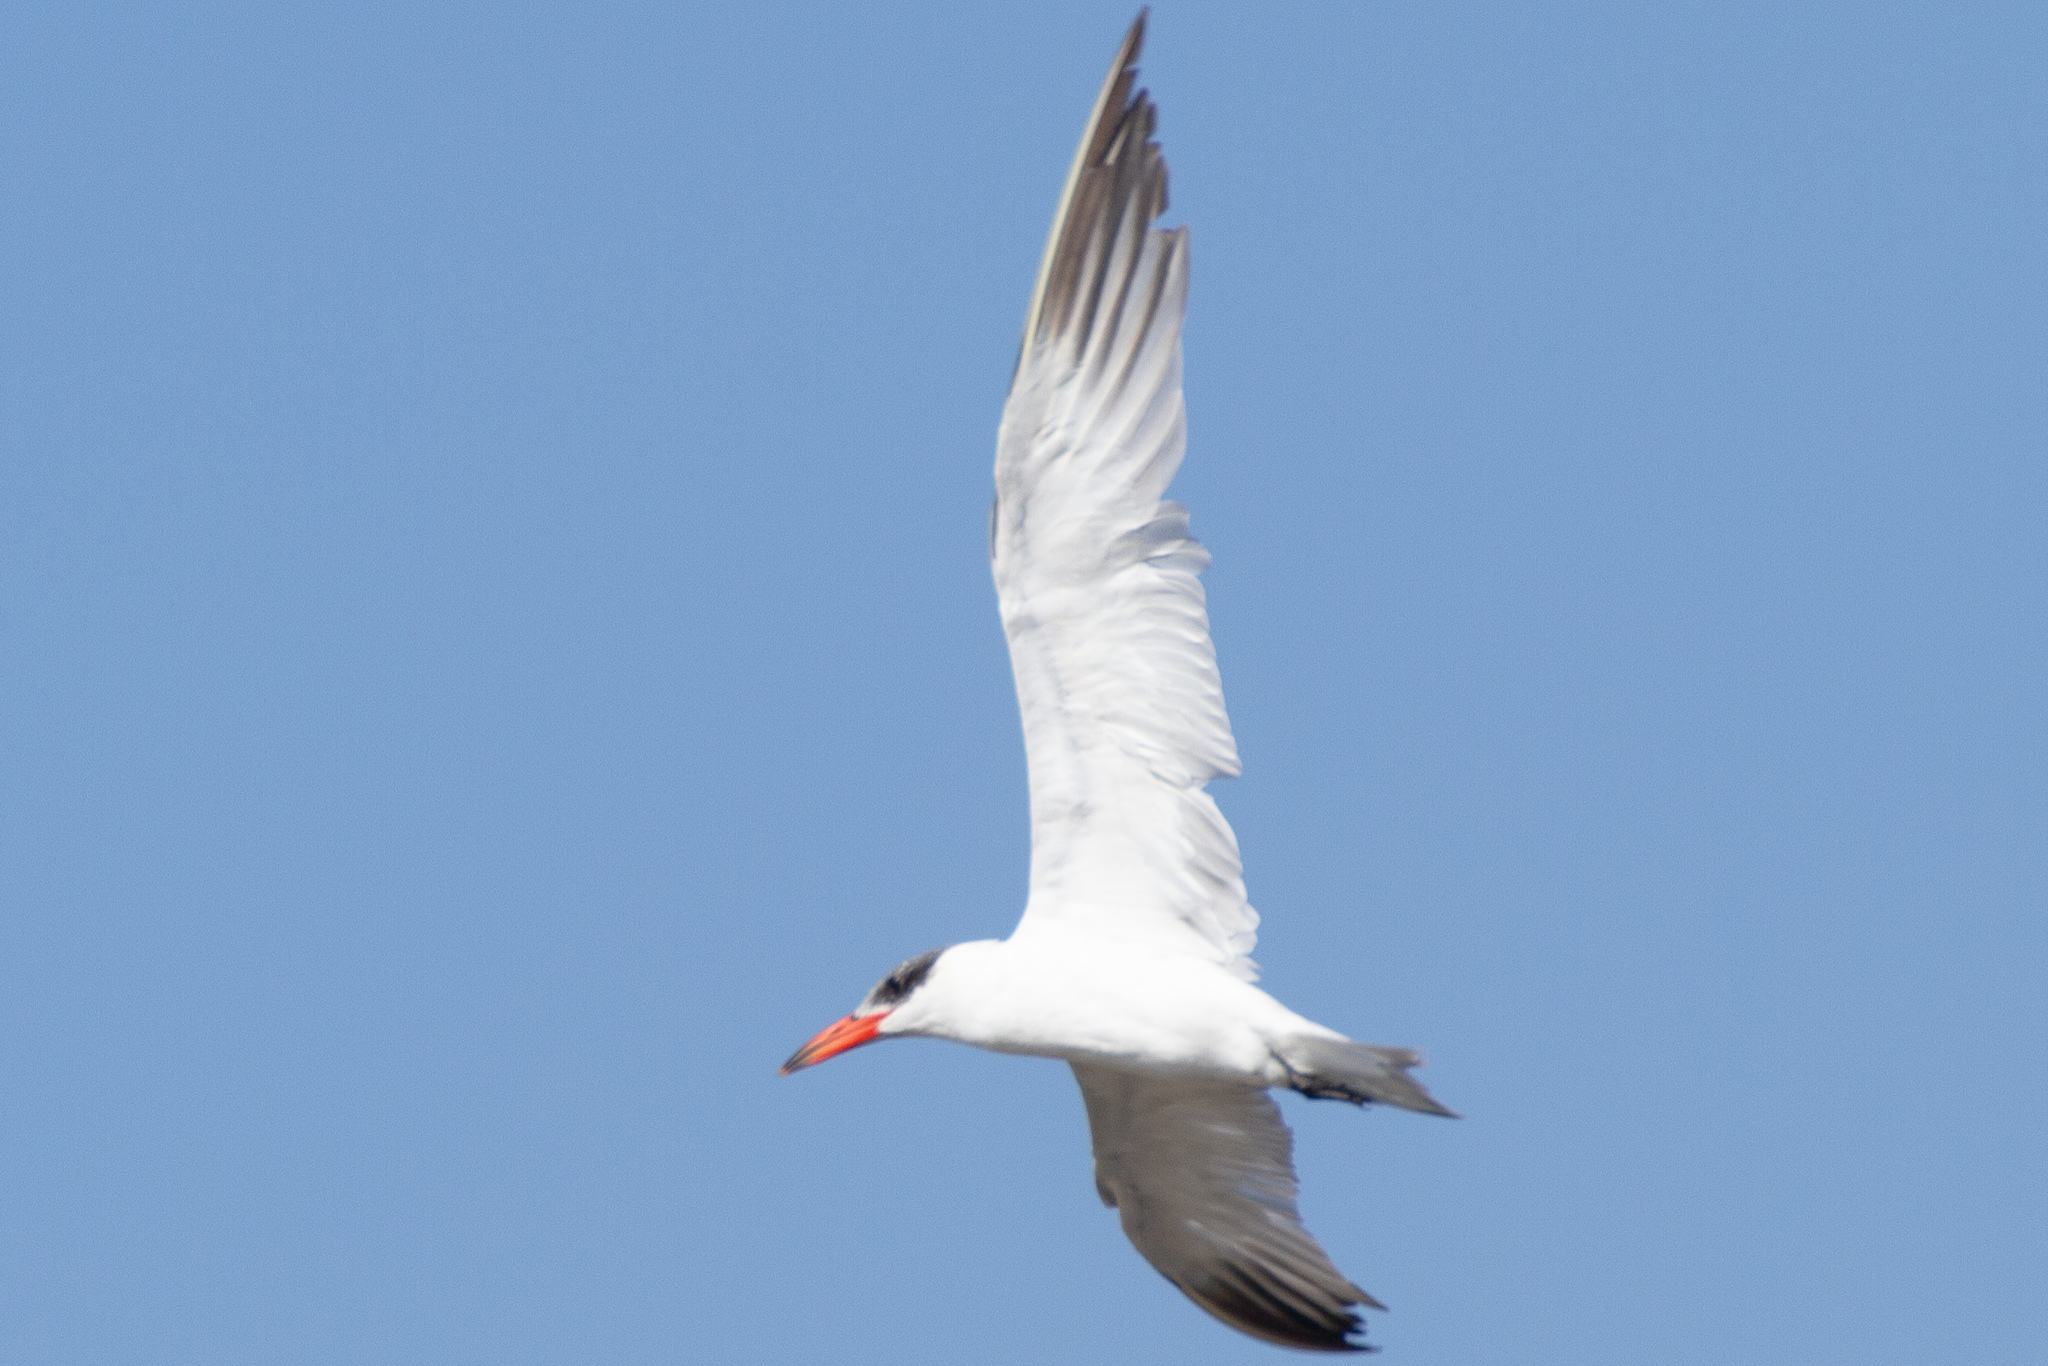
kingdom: Animalia
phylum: Chordata
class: Aves
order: Charadriiformes
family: Laridae
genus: Hydroprogne
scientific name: Hydroprogne caspia
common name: Caspian tern
